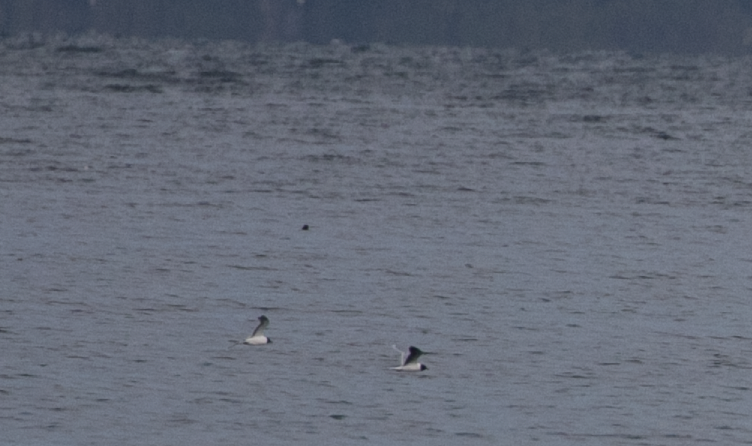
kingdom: Animalia
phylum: Chordata
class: Aves
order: Charadriiformes
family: Laridae
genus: Hydrocoloeus
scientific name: Hydrocoloeus minutus
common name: Little gull
